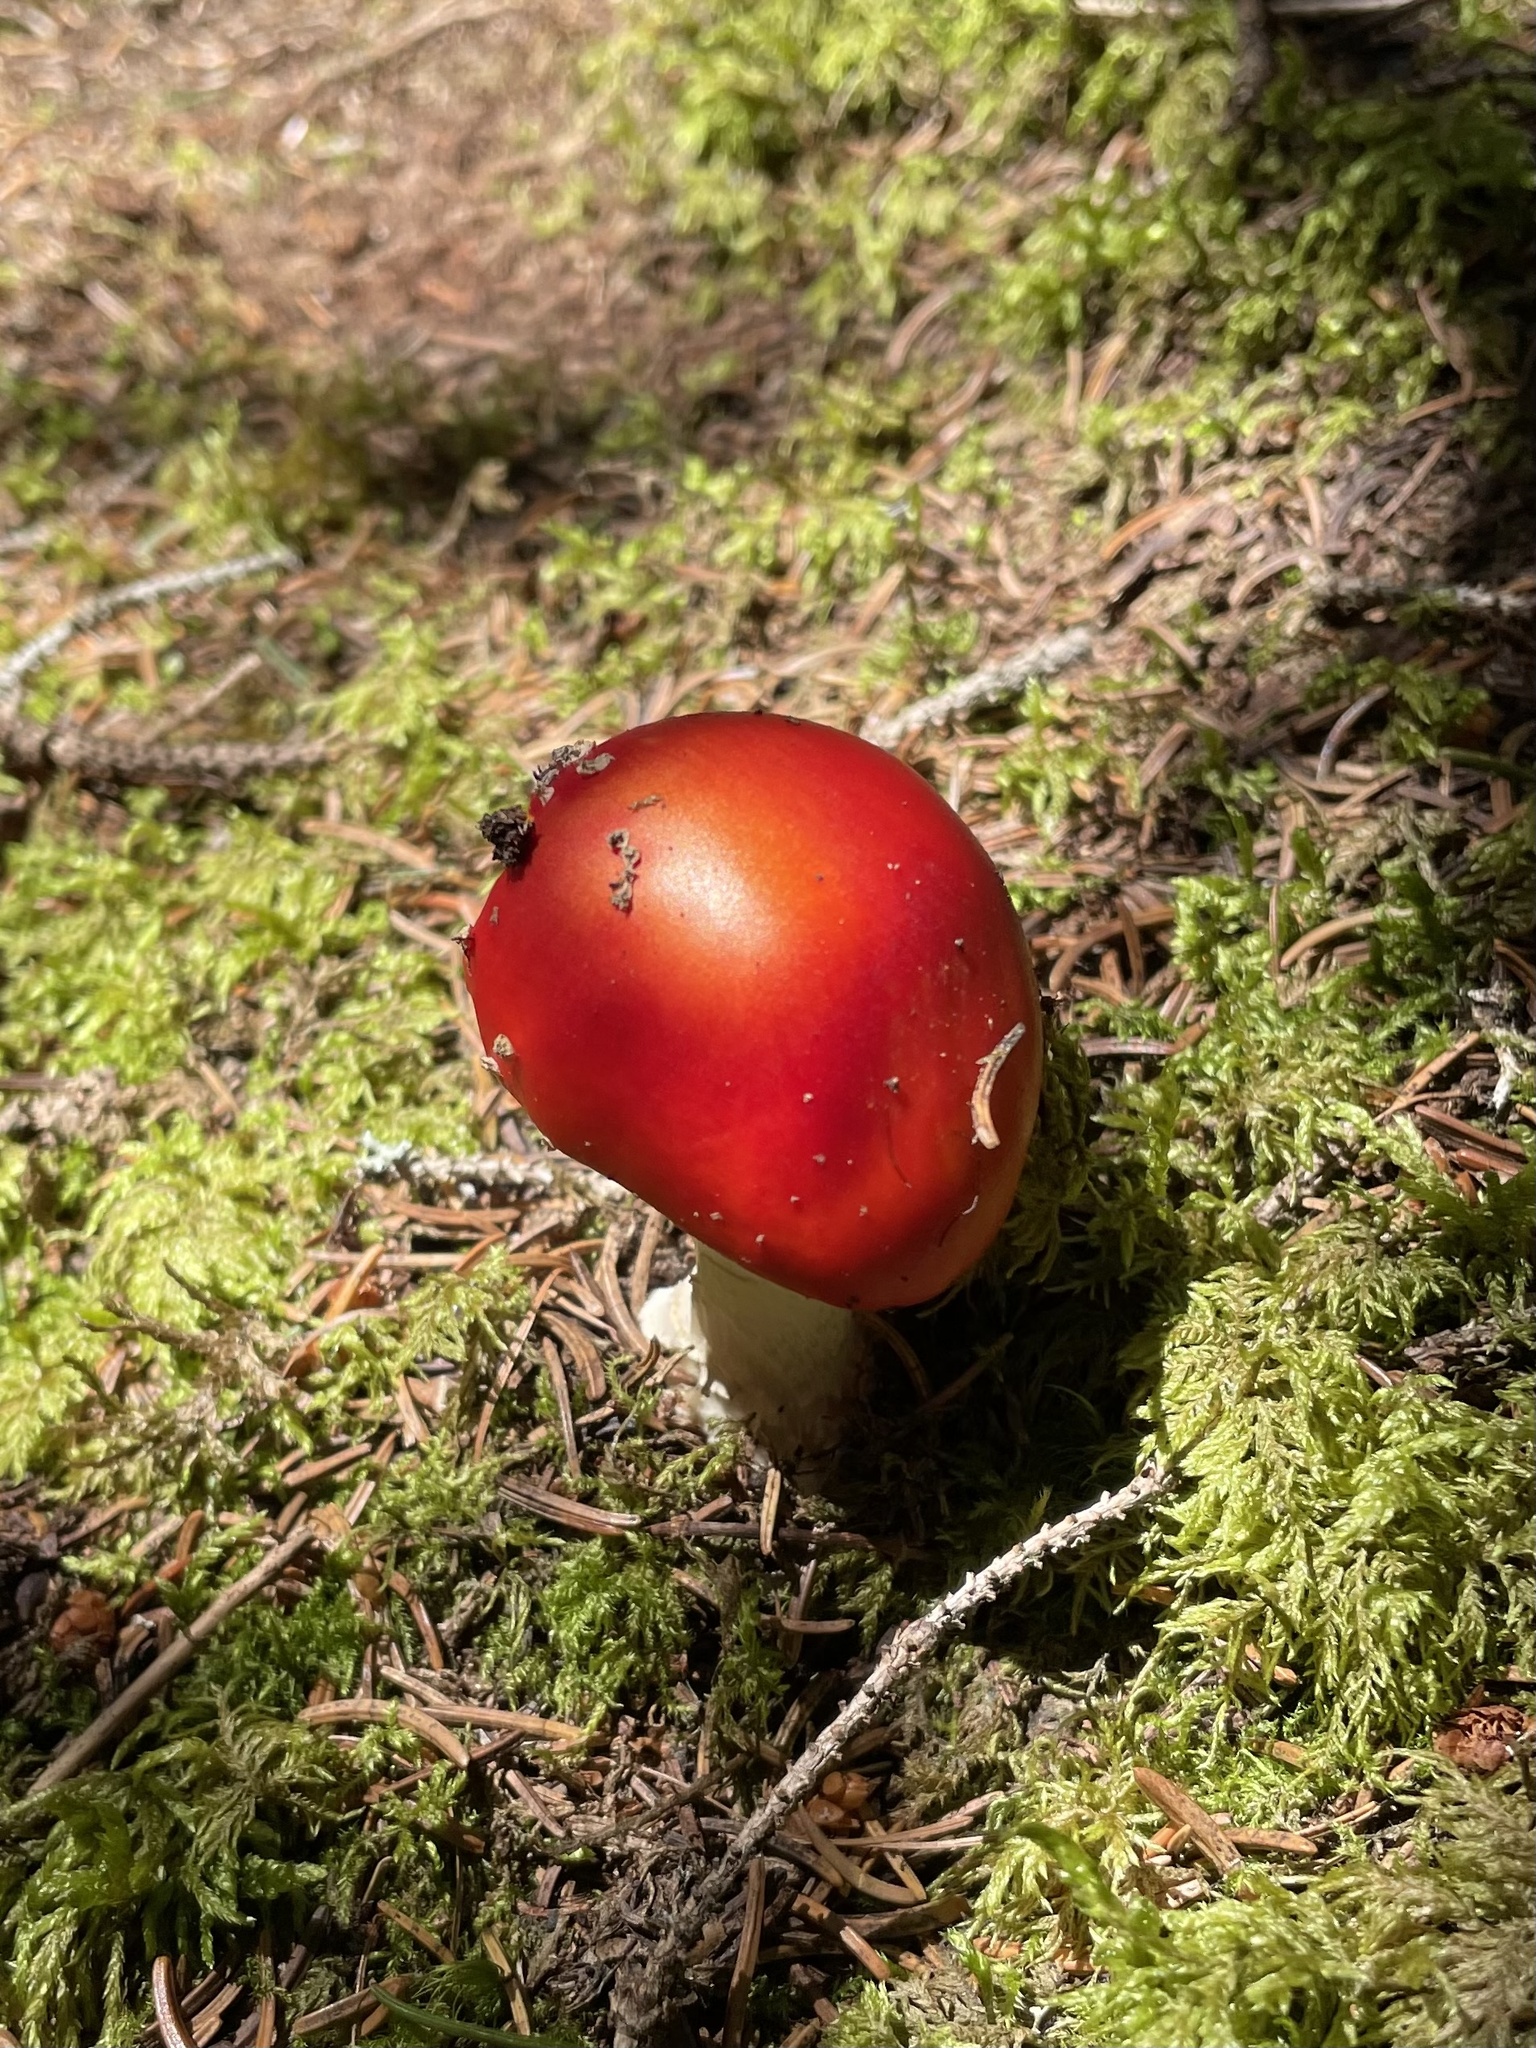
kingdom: Fungi
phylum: Basidiomycota
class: Agaricomycetes
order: Agaricales
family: Amanitaceae
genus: Amanita
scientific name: Amanita muscaria
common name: Fly agaric
